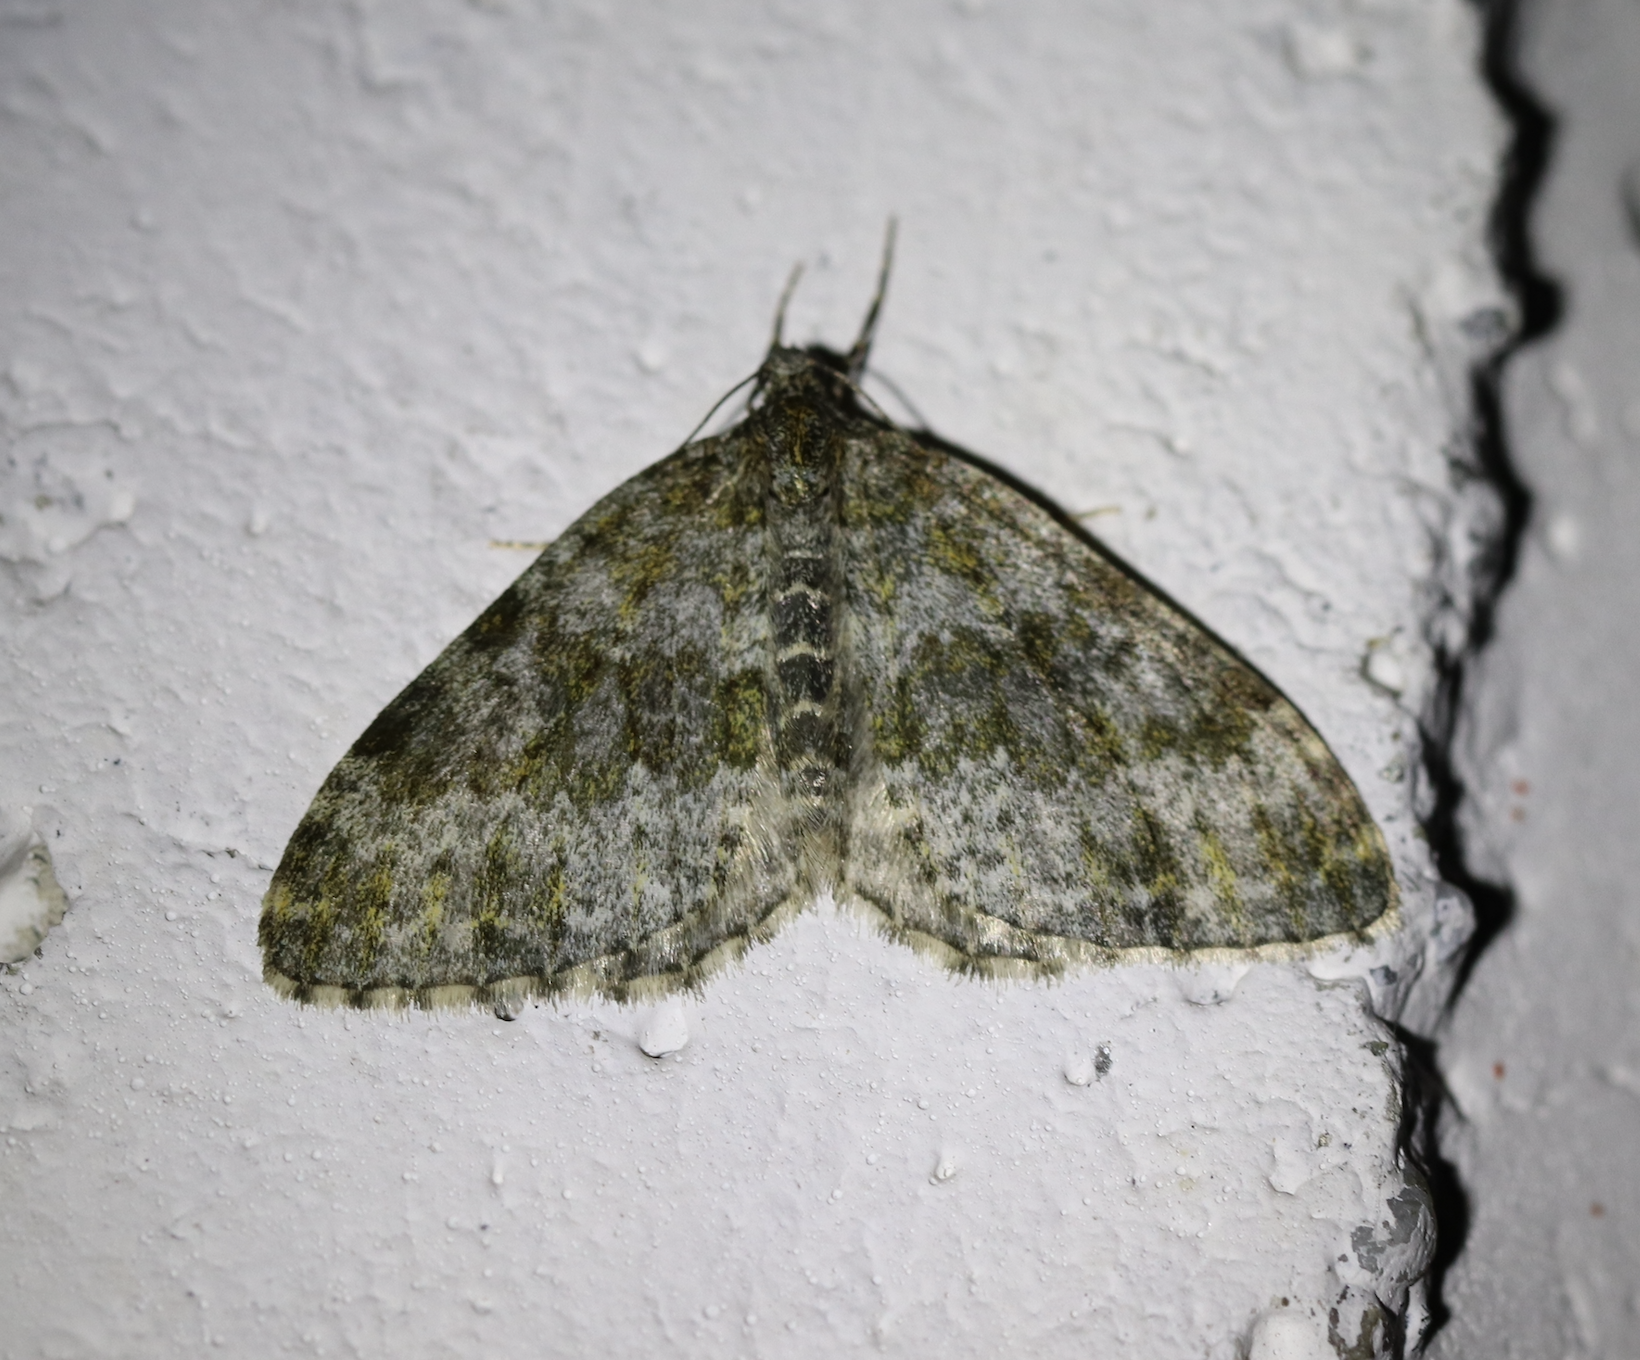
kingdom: Animalia
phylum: Arthropoda
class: Insecta
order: Lepidoptera
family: Geometridae
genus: Entephria
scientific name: Entephria flavicinctata
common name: Yellow-ringed carpet
